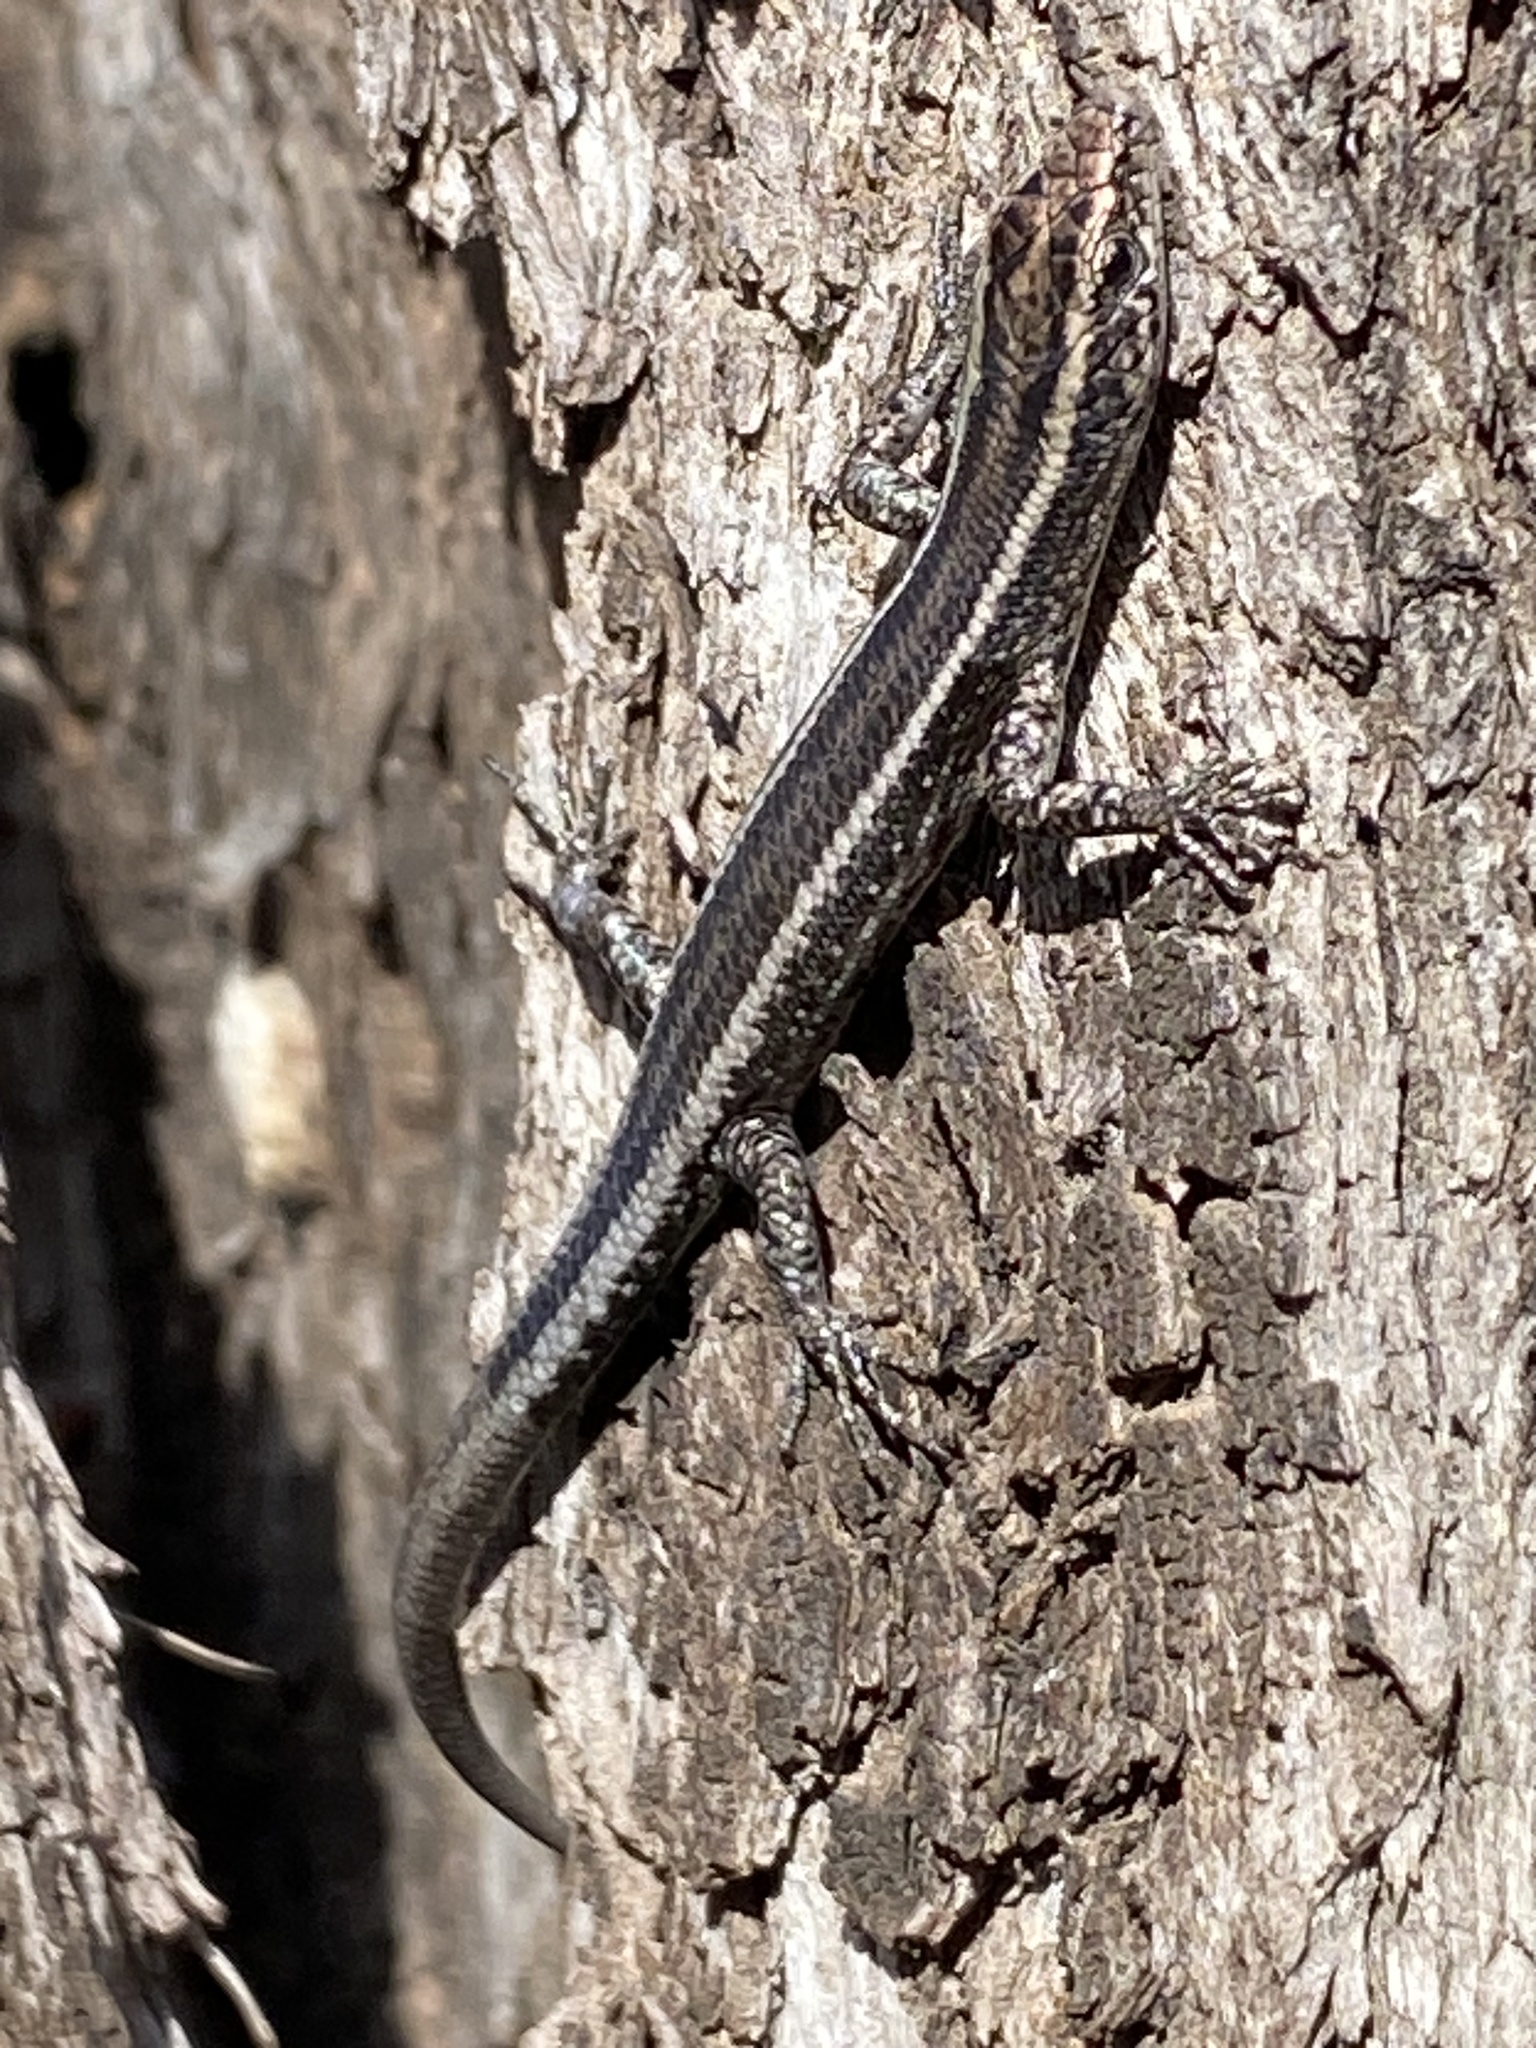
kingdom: Animalia
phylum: Chordata
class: Squamata
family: Scincidae
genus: Cryptoblepharus
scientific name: Cryptoblepharus pulcher
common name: Elegant snake-eyed skink
